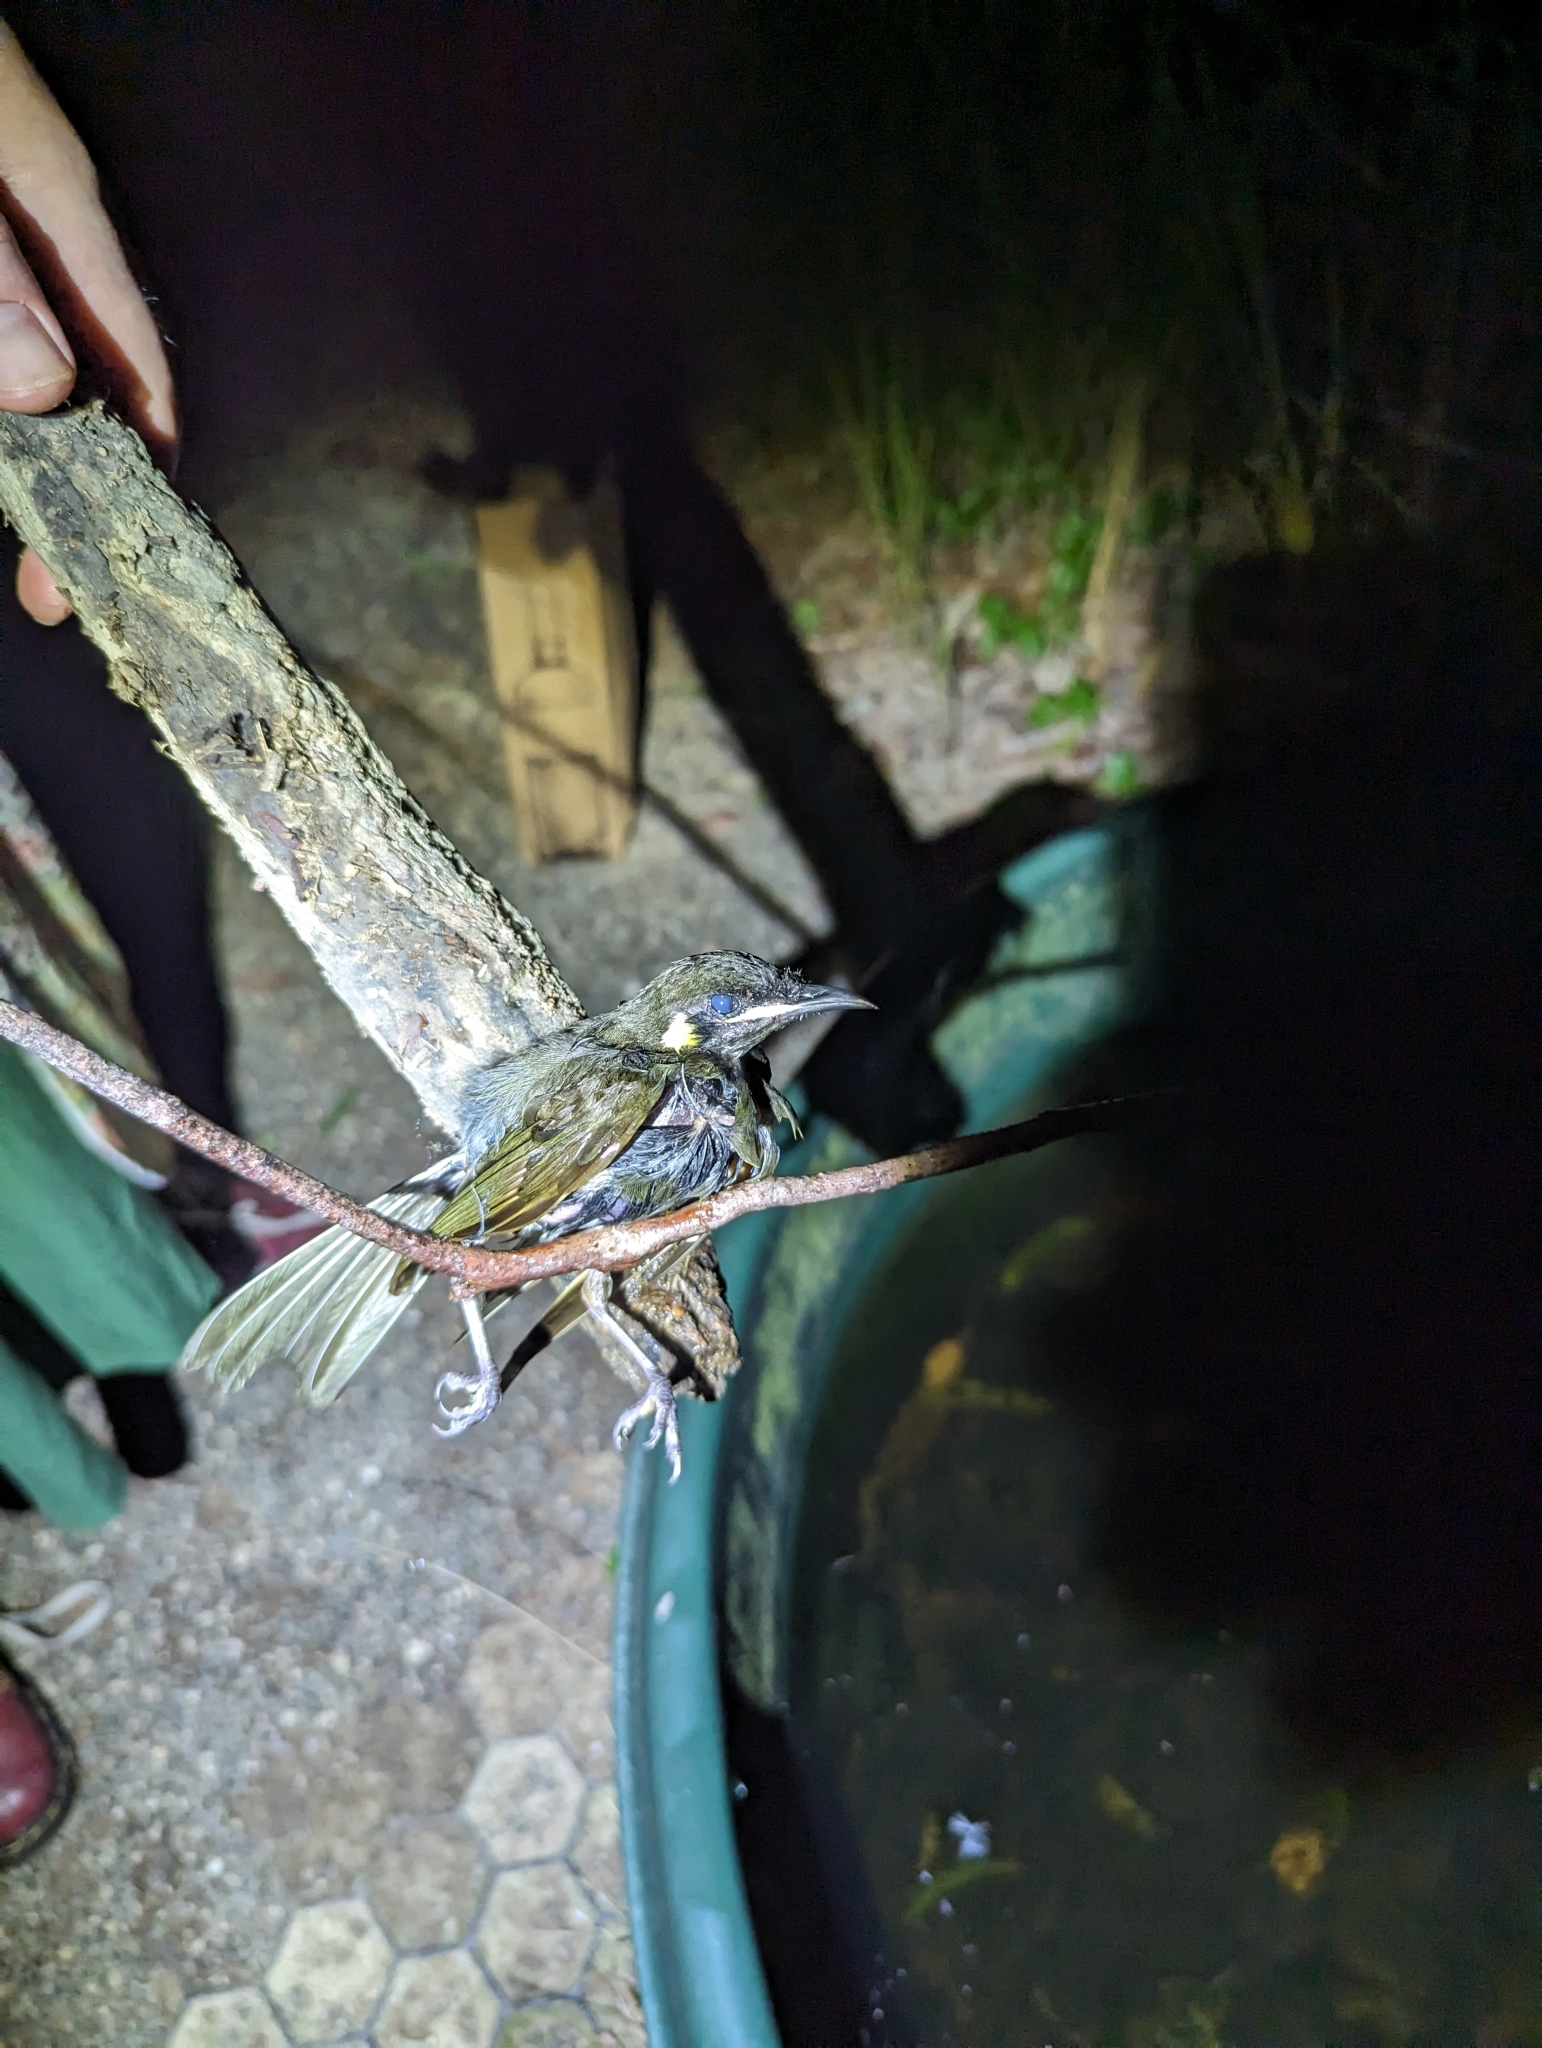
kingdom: Animalia
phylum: Chordata
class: Aves
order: Passeriformes
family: Meliphagidae
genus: Meliphaga
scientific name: Meliphaga lewinii
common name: Lewin's honeyeater
